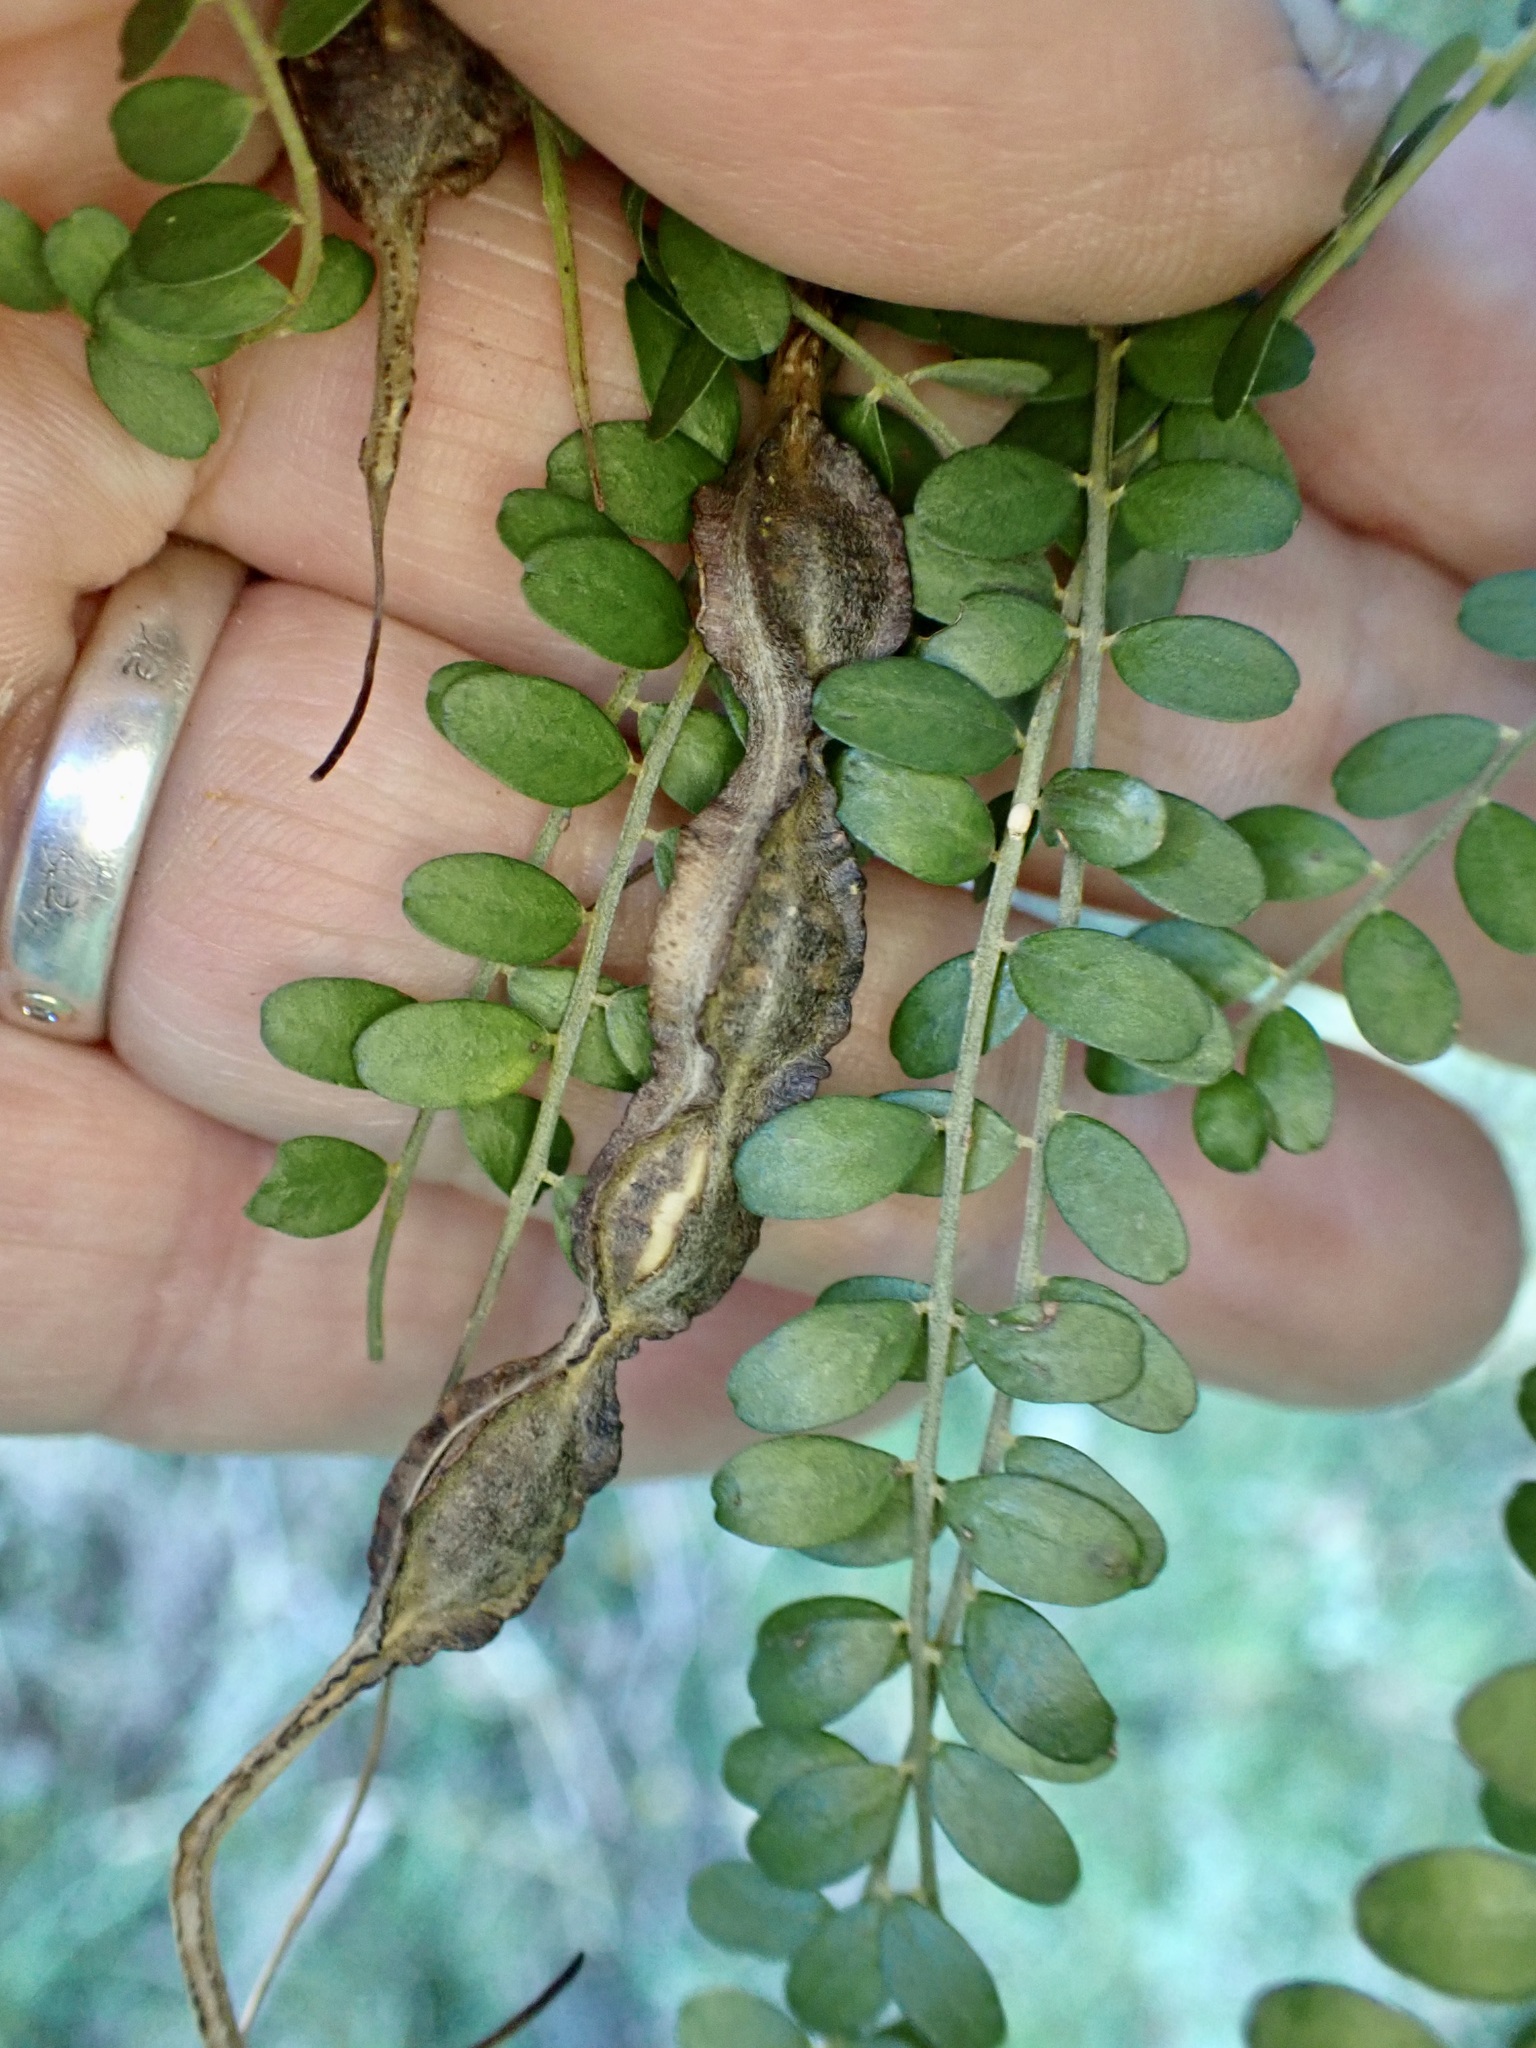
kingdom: Plantae
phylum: Tracheophyta
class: Magnoliopsida
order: Fabales
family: Fabaceae
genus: Sophora
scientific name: Sophora microphylla
